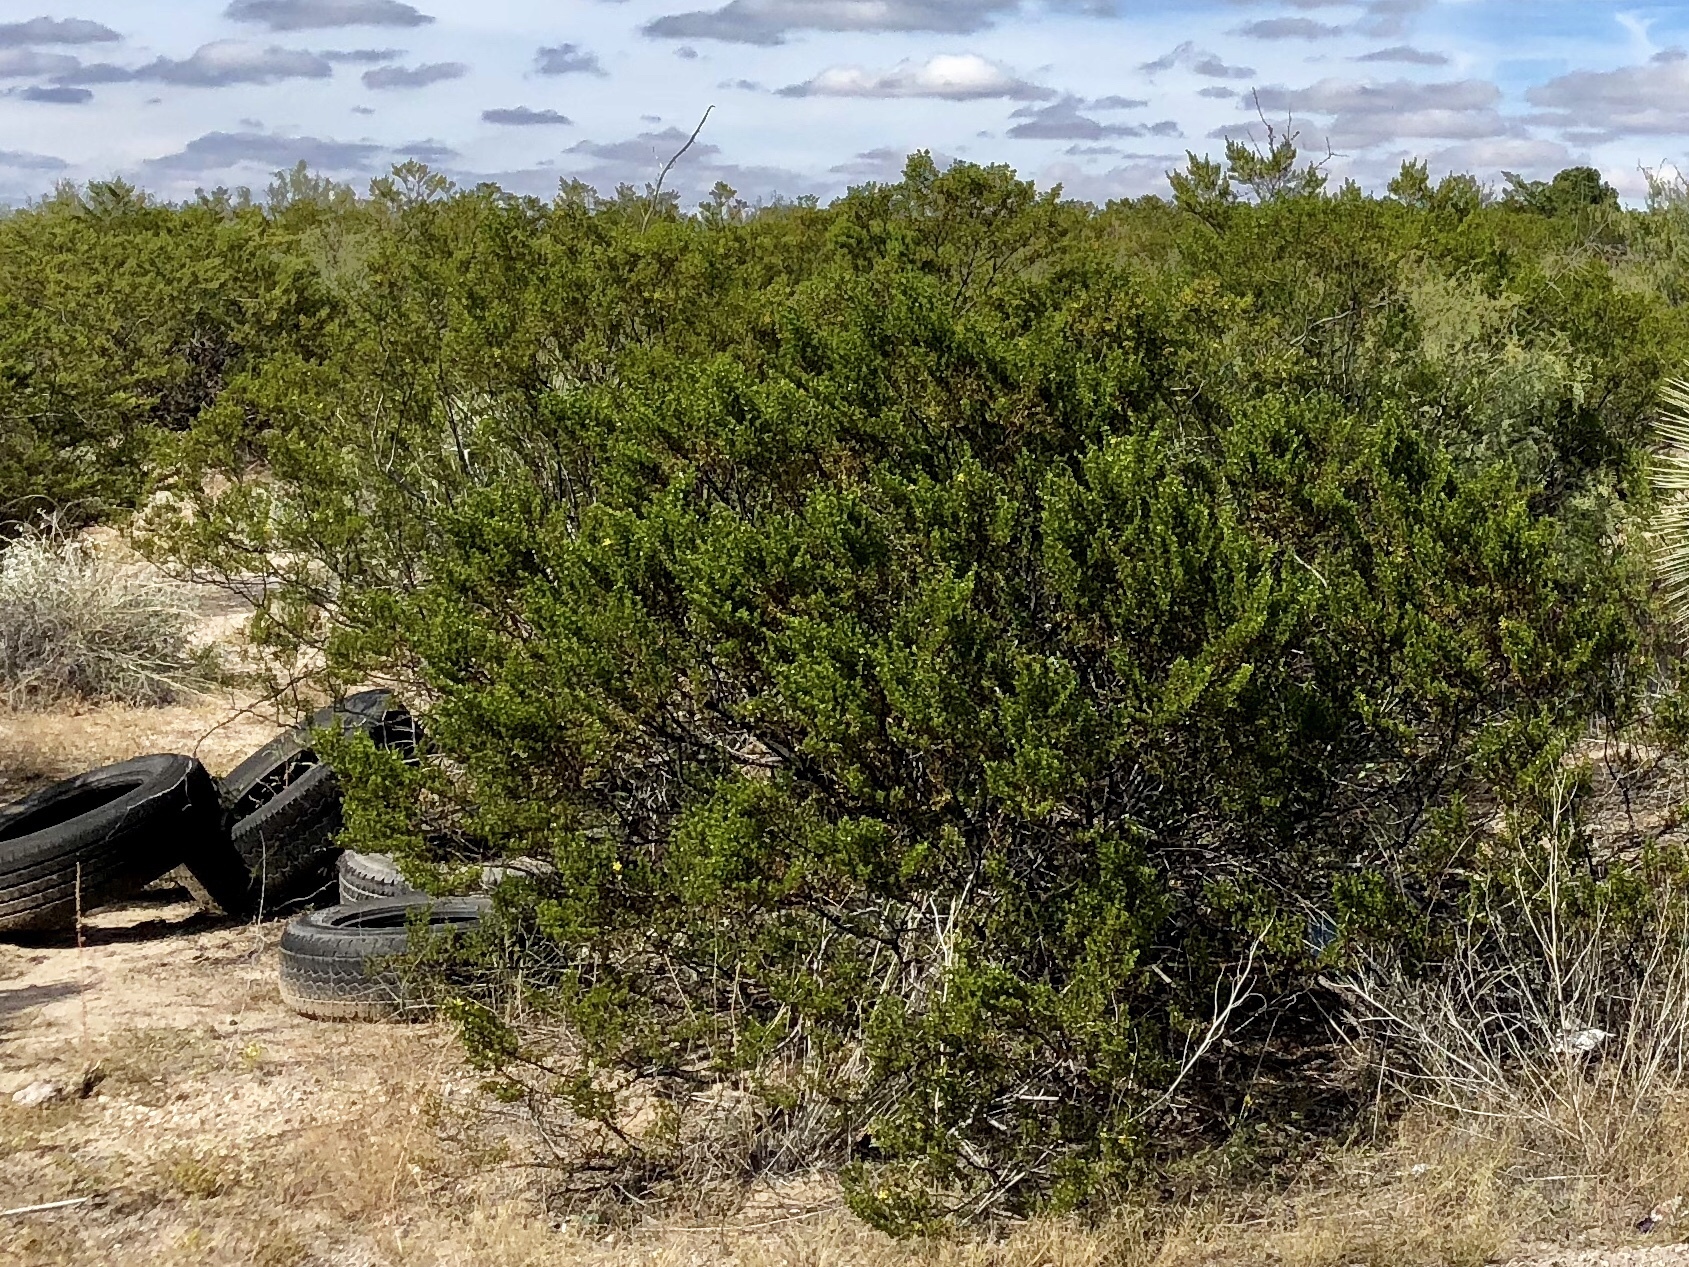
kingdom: Plantae
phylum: Tracheophyta
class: Magnoliopsida
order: Zygophyllales
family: Zygophyllaceae
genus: Larrea
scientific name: Larrea tridentata
